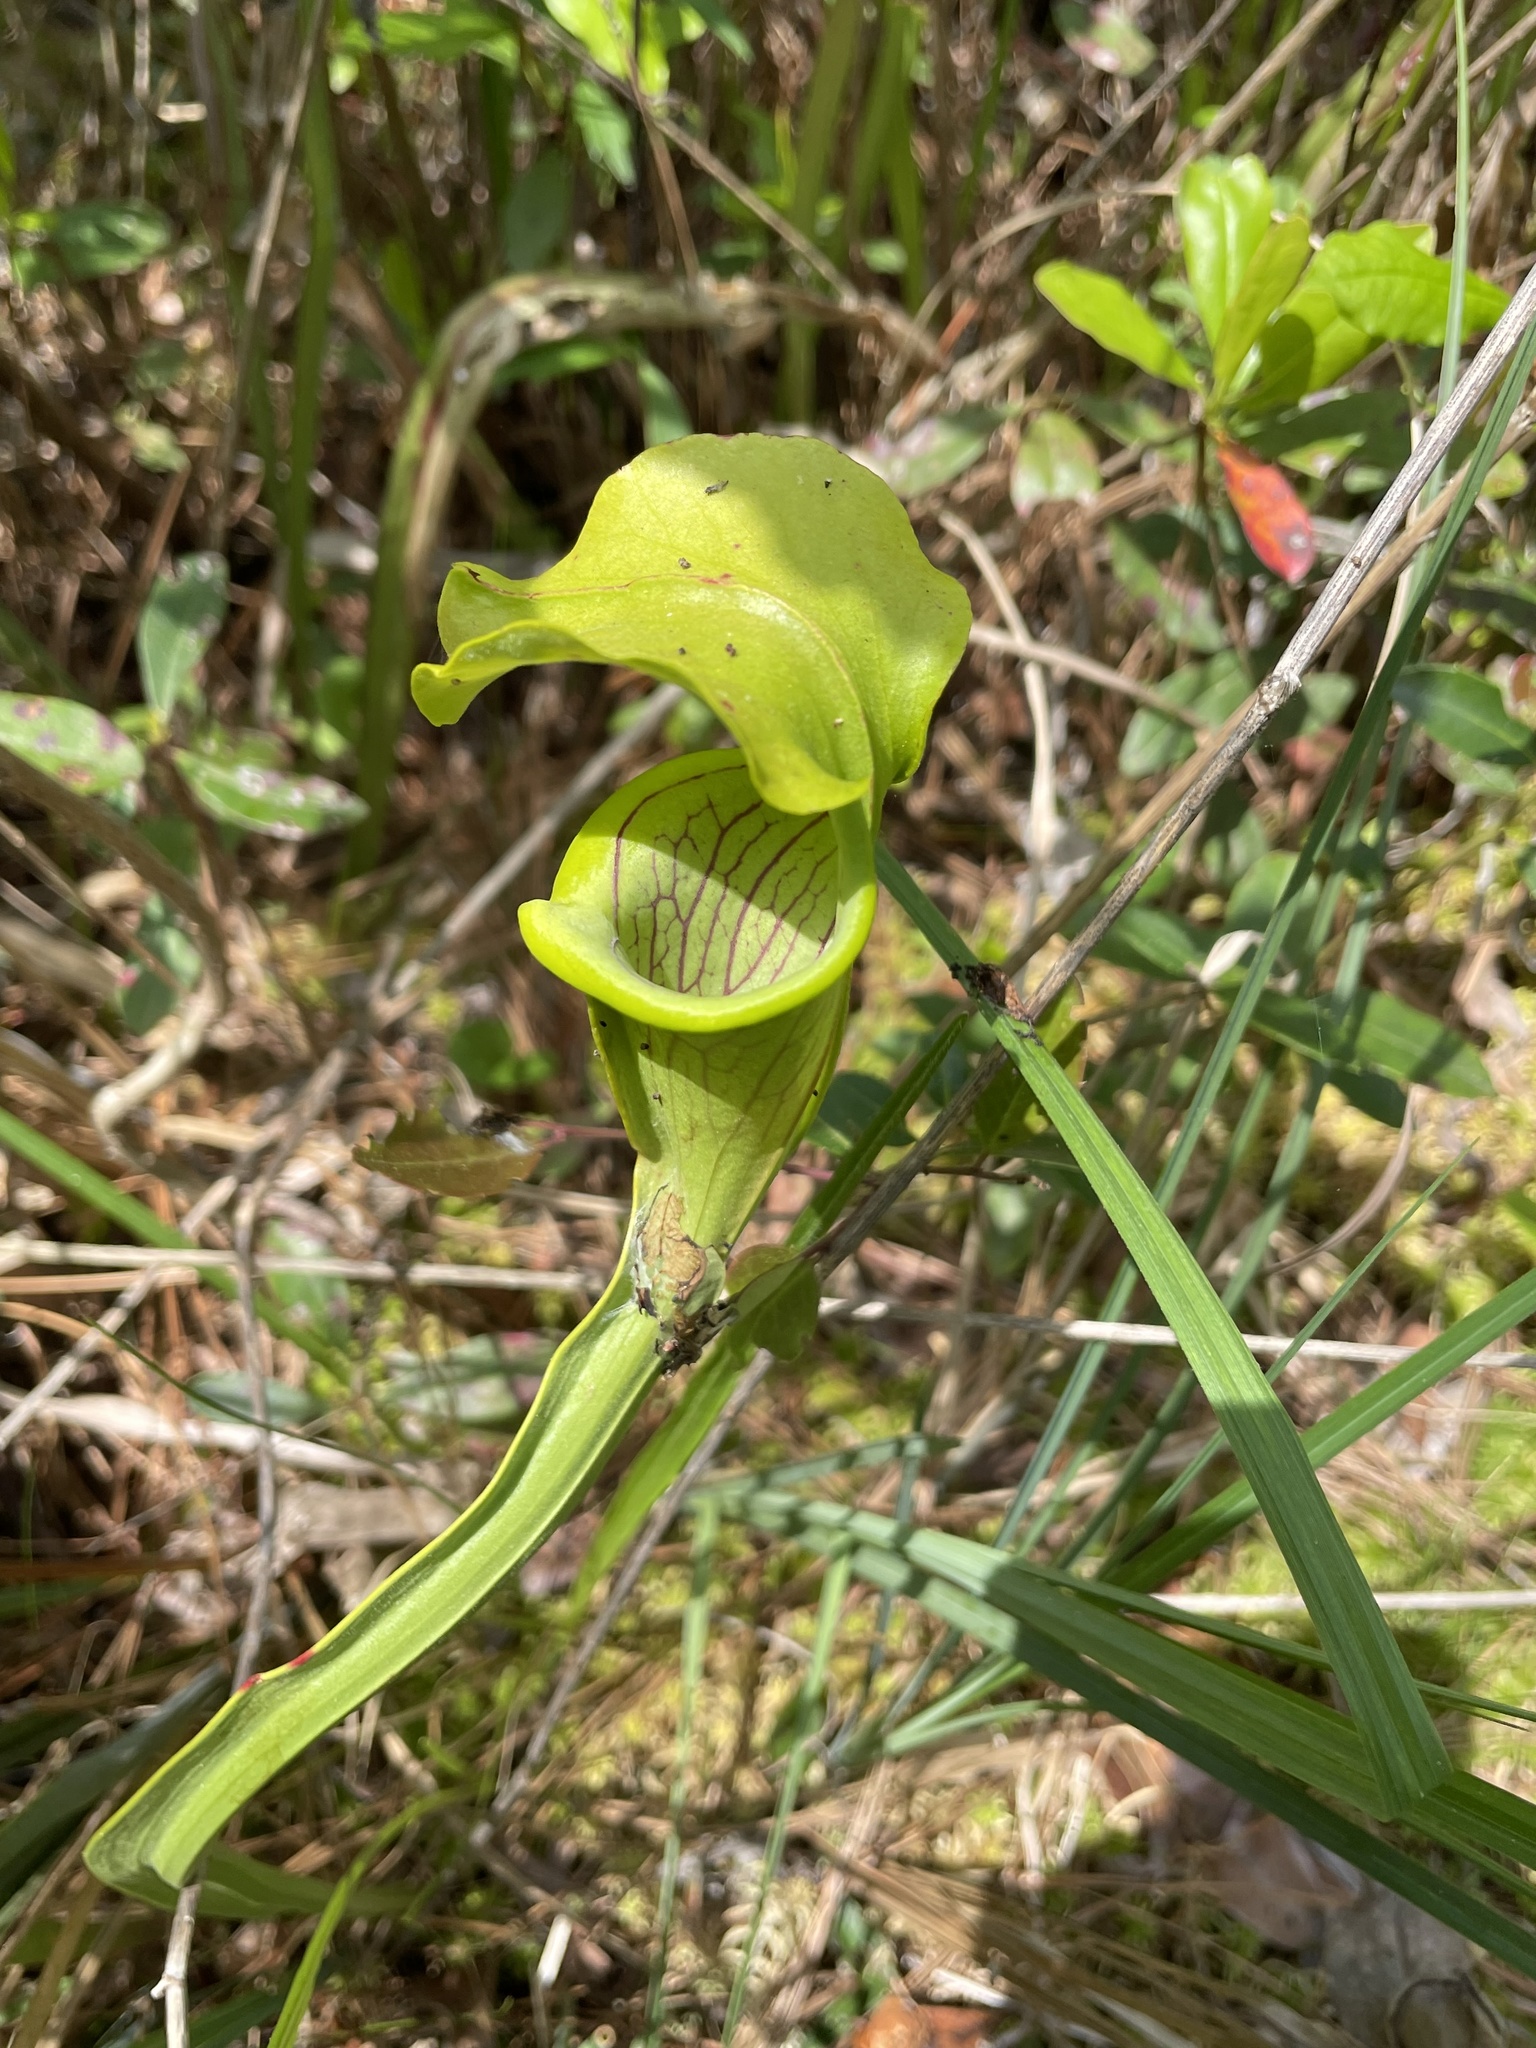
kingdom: Plantae
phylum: Tracheophyta
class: Magnoliopsida
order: Ericales
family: Sarraceniaceae
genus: Sarracenia
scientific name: Sarracenia alata
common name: Yellow trumpets
